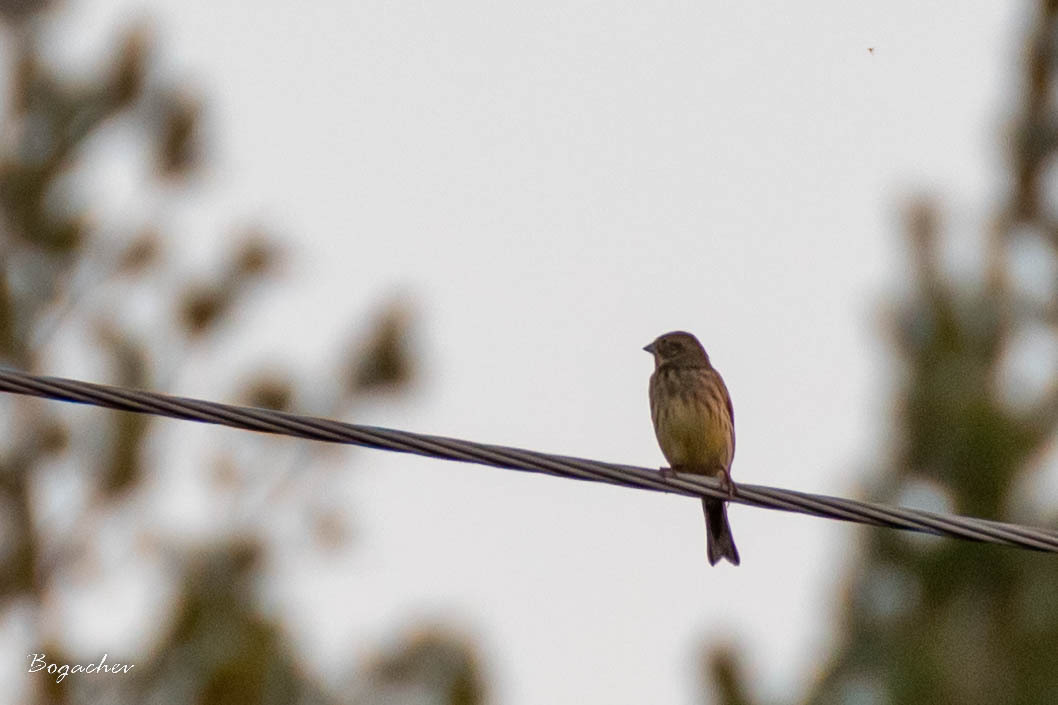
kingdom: Animalia
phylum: Chordata
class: Aves
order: Passeriformes
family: Emberizidae
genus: Emberiza
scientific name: Emberiza citrinella
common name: Yellowhammer
